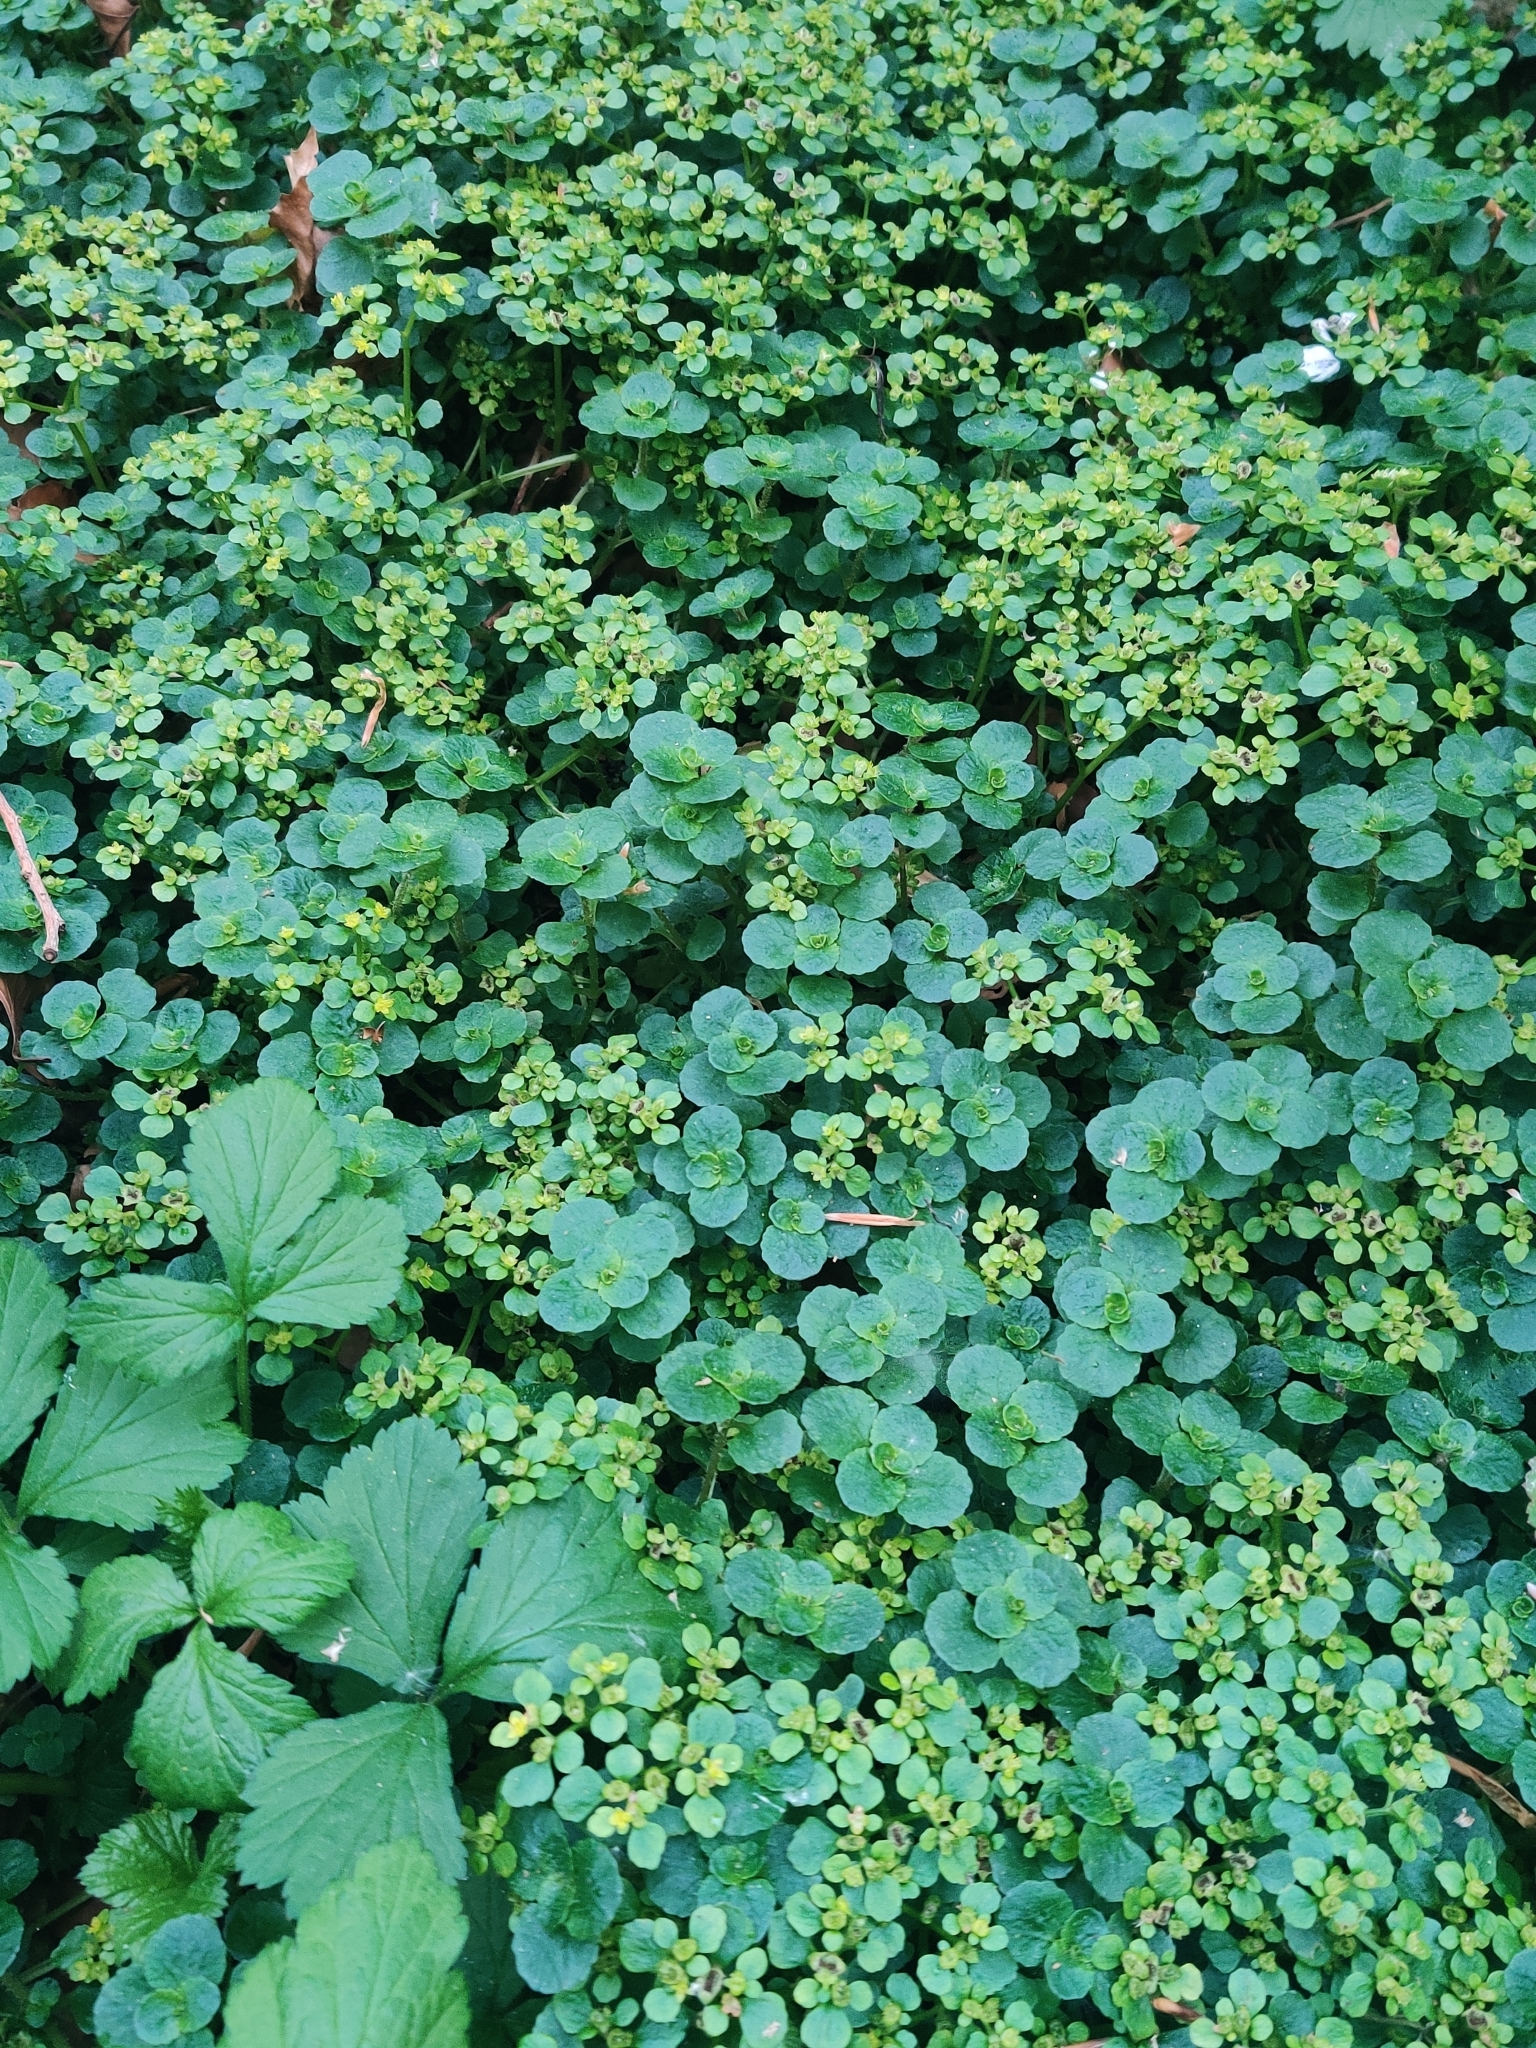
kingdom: Plantae
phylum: Tracheophyta
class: Magnoliopsida
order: Saxifragales
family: Saxifragaceae
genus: Chrysosplenium
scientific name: Chrysosplenium oppositifolium
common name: Opposite-leaved golden-saxifrage
